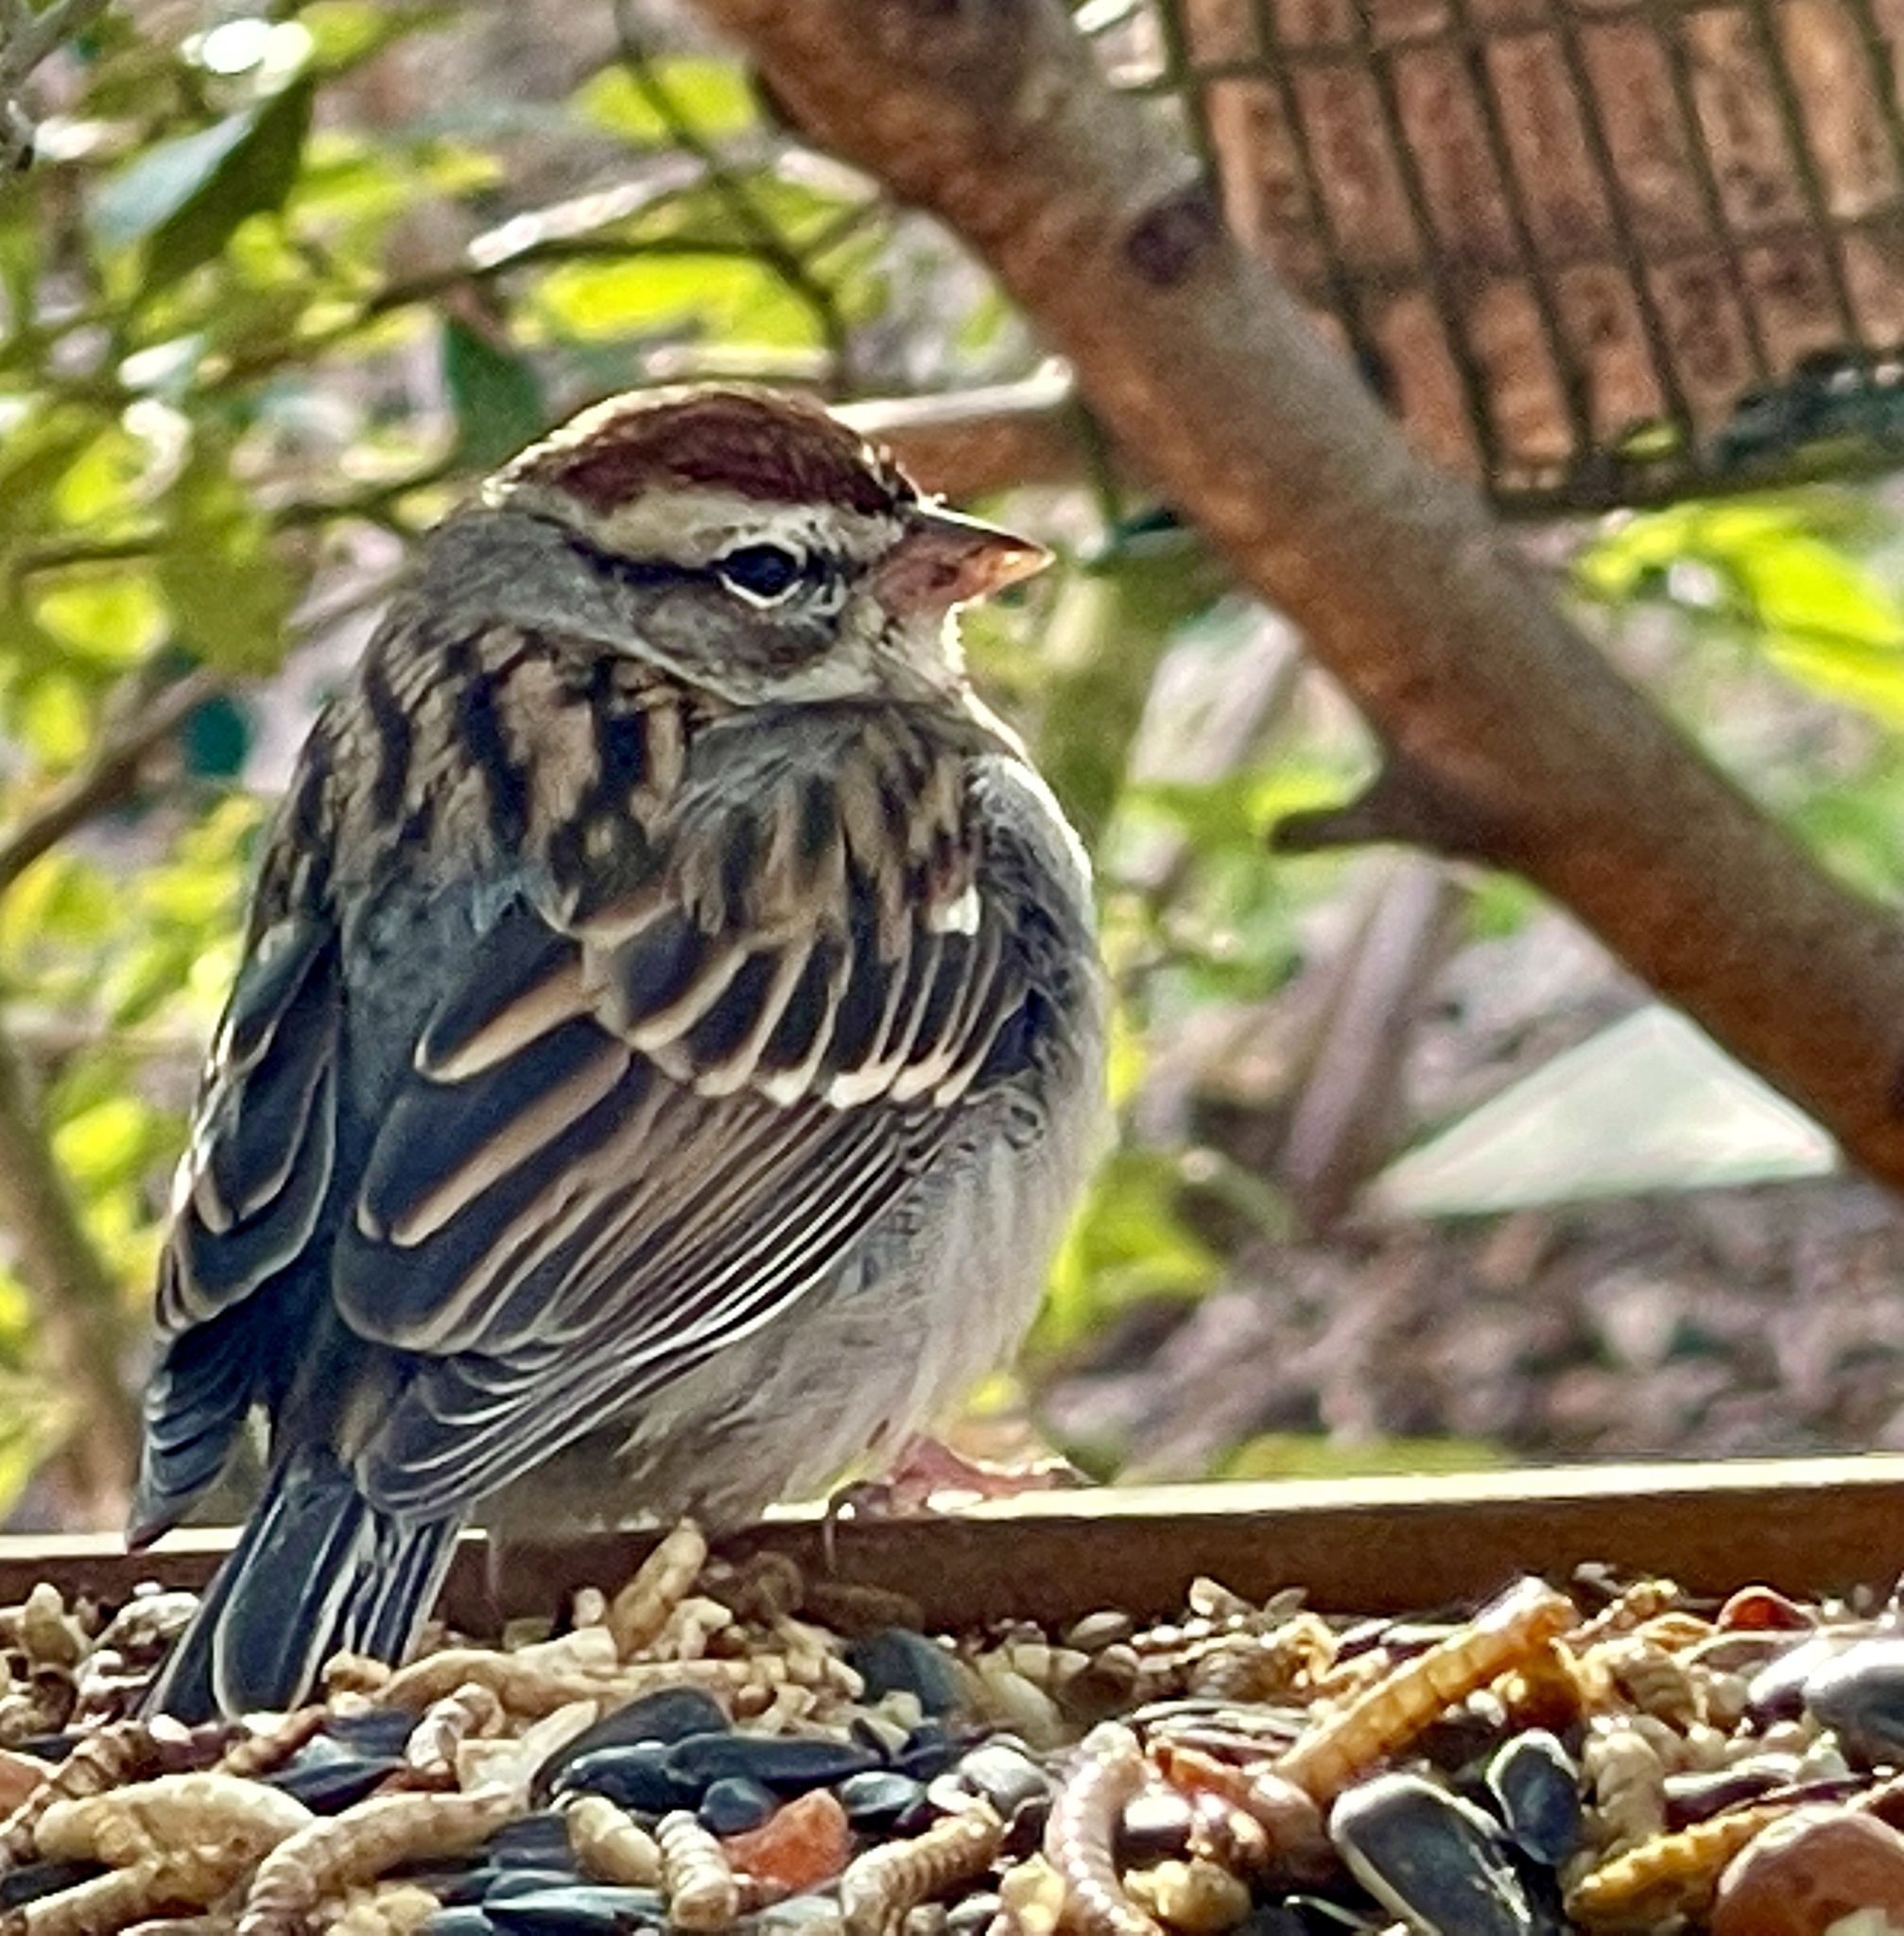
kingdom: Animalia
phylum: Chordata
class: Aves
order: Passeriformes
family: Passerellidae
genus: Spizella
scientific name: Spizella passerina
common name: Chipping sparrow
